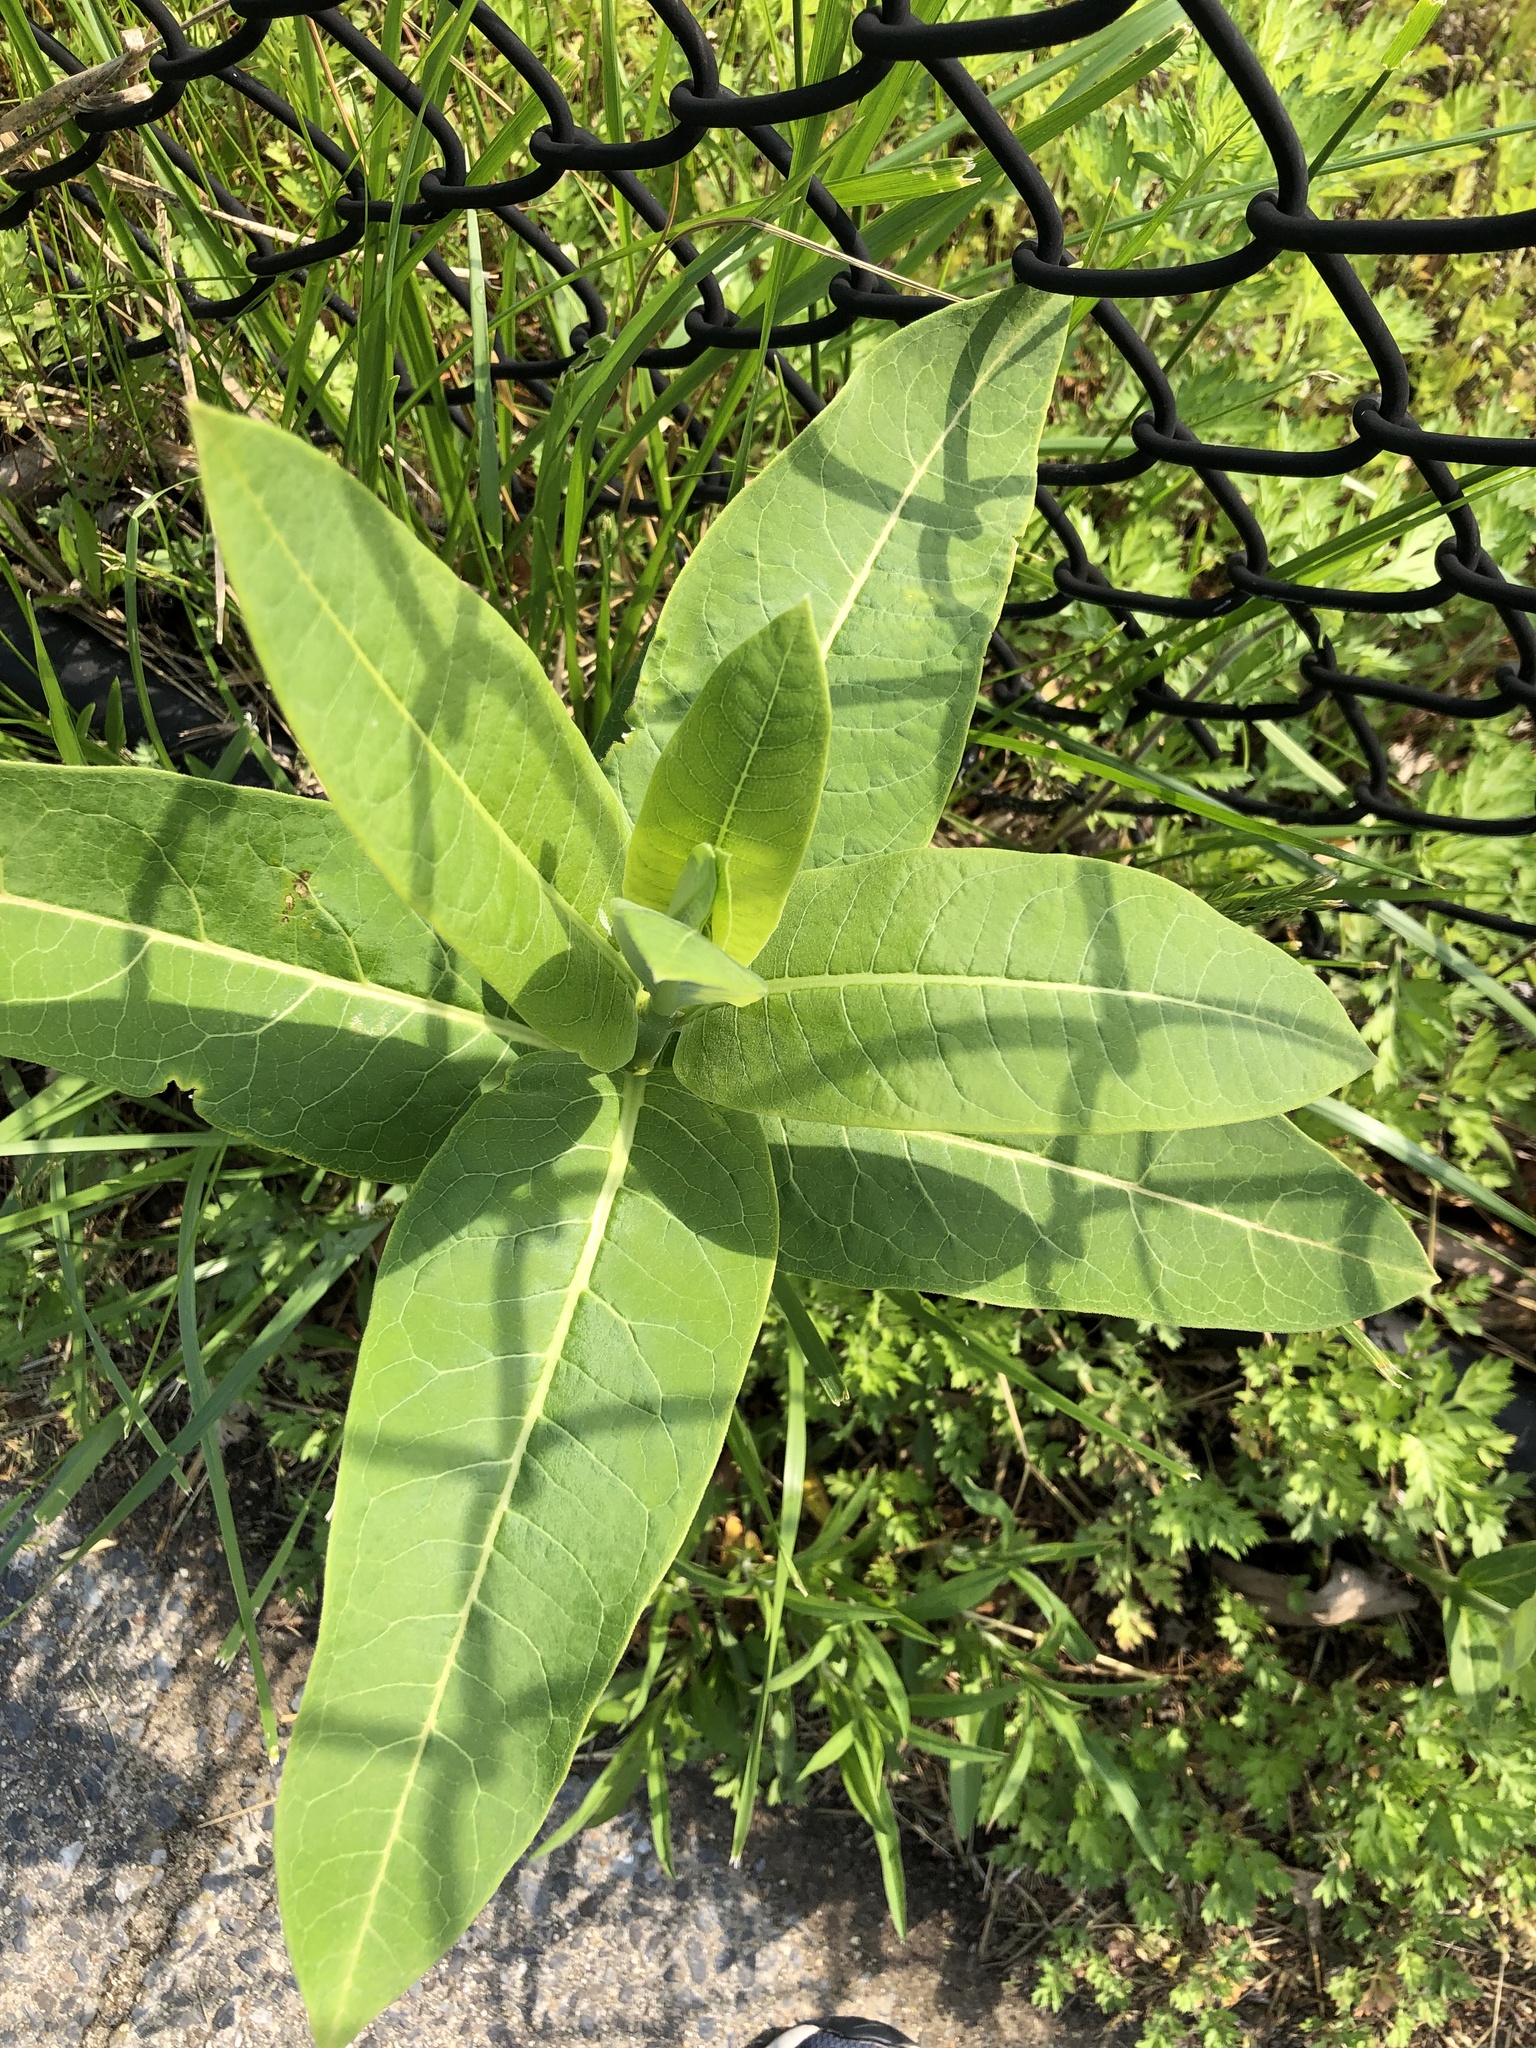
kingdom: Plantae
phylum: Tracheophyta
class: Magnoliopsida
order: Gentianales
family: Apocynaceae
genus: Asclepias
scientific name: Asclepias syriaca
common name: Common milkweed
